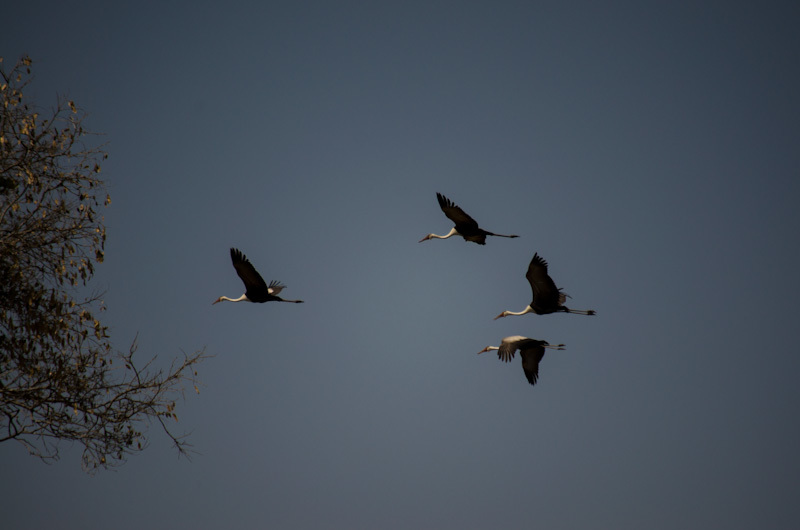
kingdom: Animalia
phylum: Chordata
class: Aves
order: Gruiformes
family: Gruidae
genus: Bugeranus
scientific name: Bugeranus carunculatus
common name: Wattled crane
